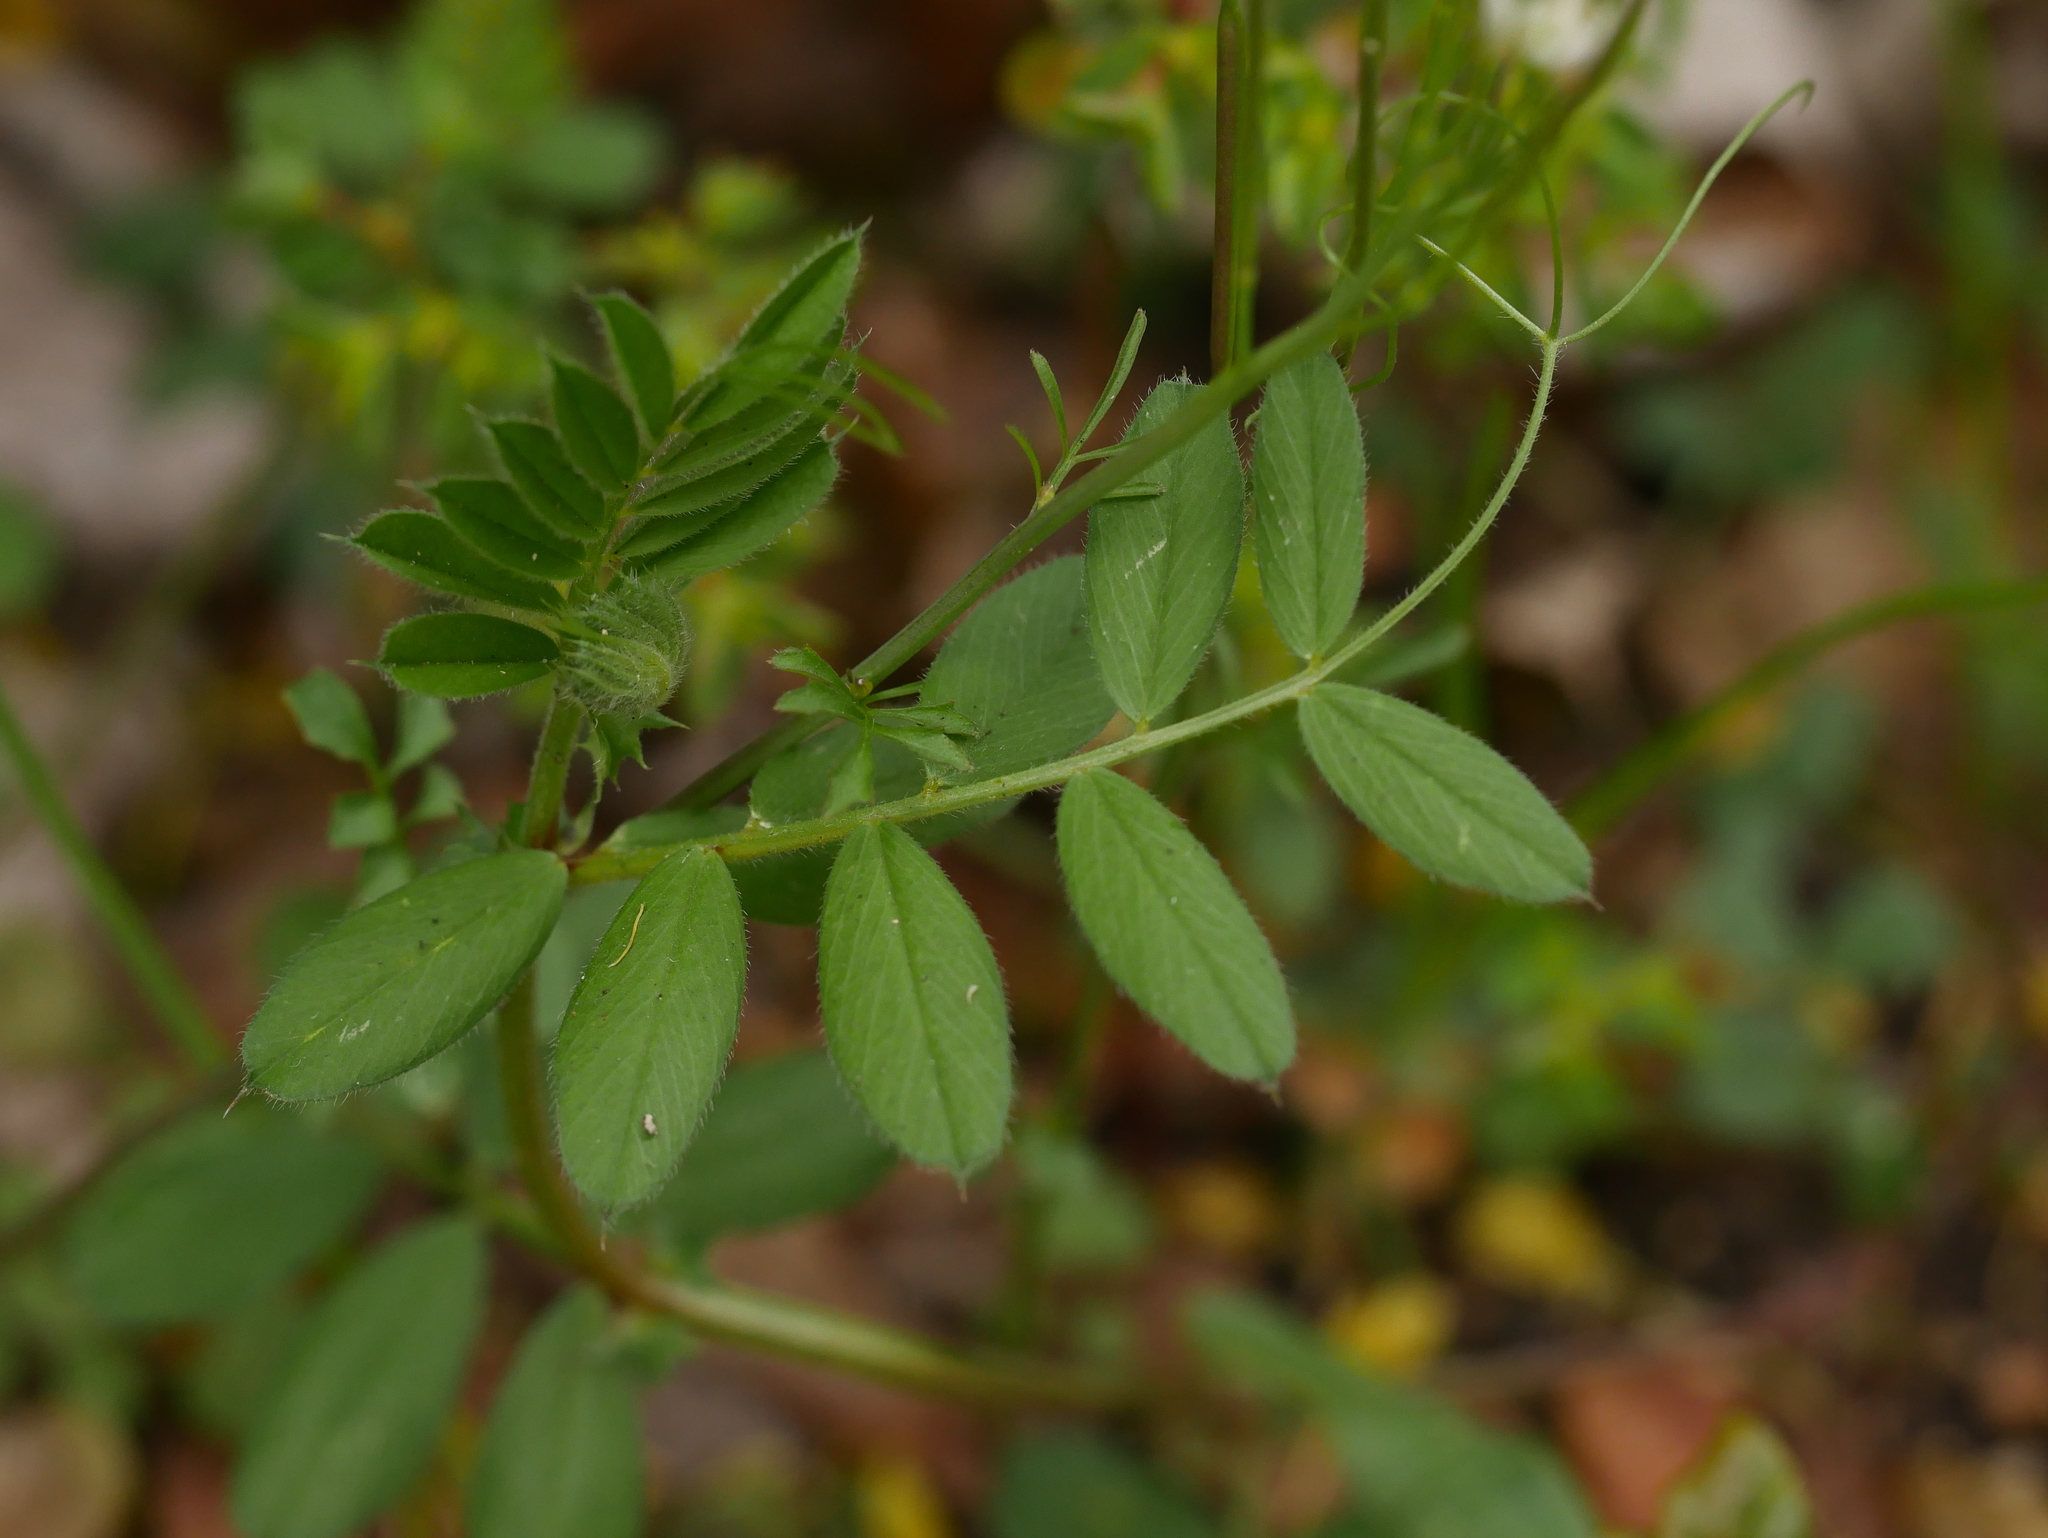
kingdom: Plantae
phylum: Tracheophyta
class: Magnoliopsida
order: Fabales
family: Fabaceae
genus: Vicia
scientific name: Vicia sativa
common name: Garden vetch
